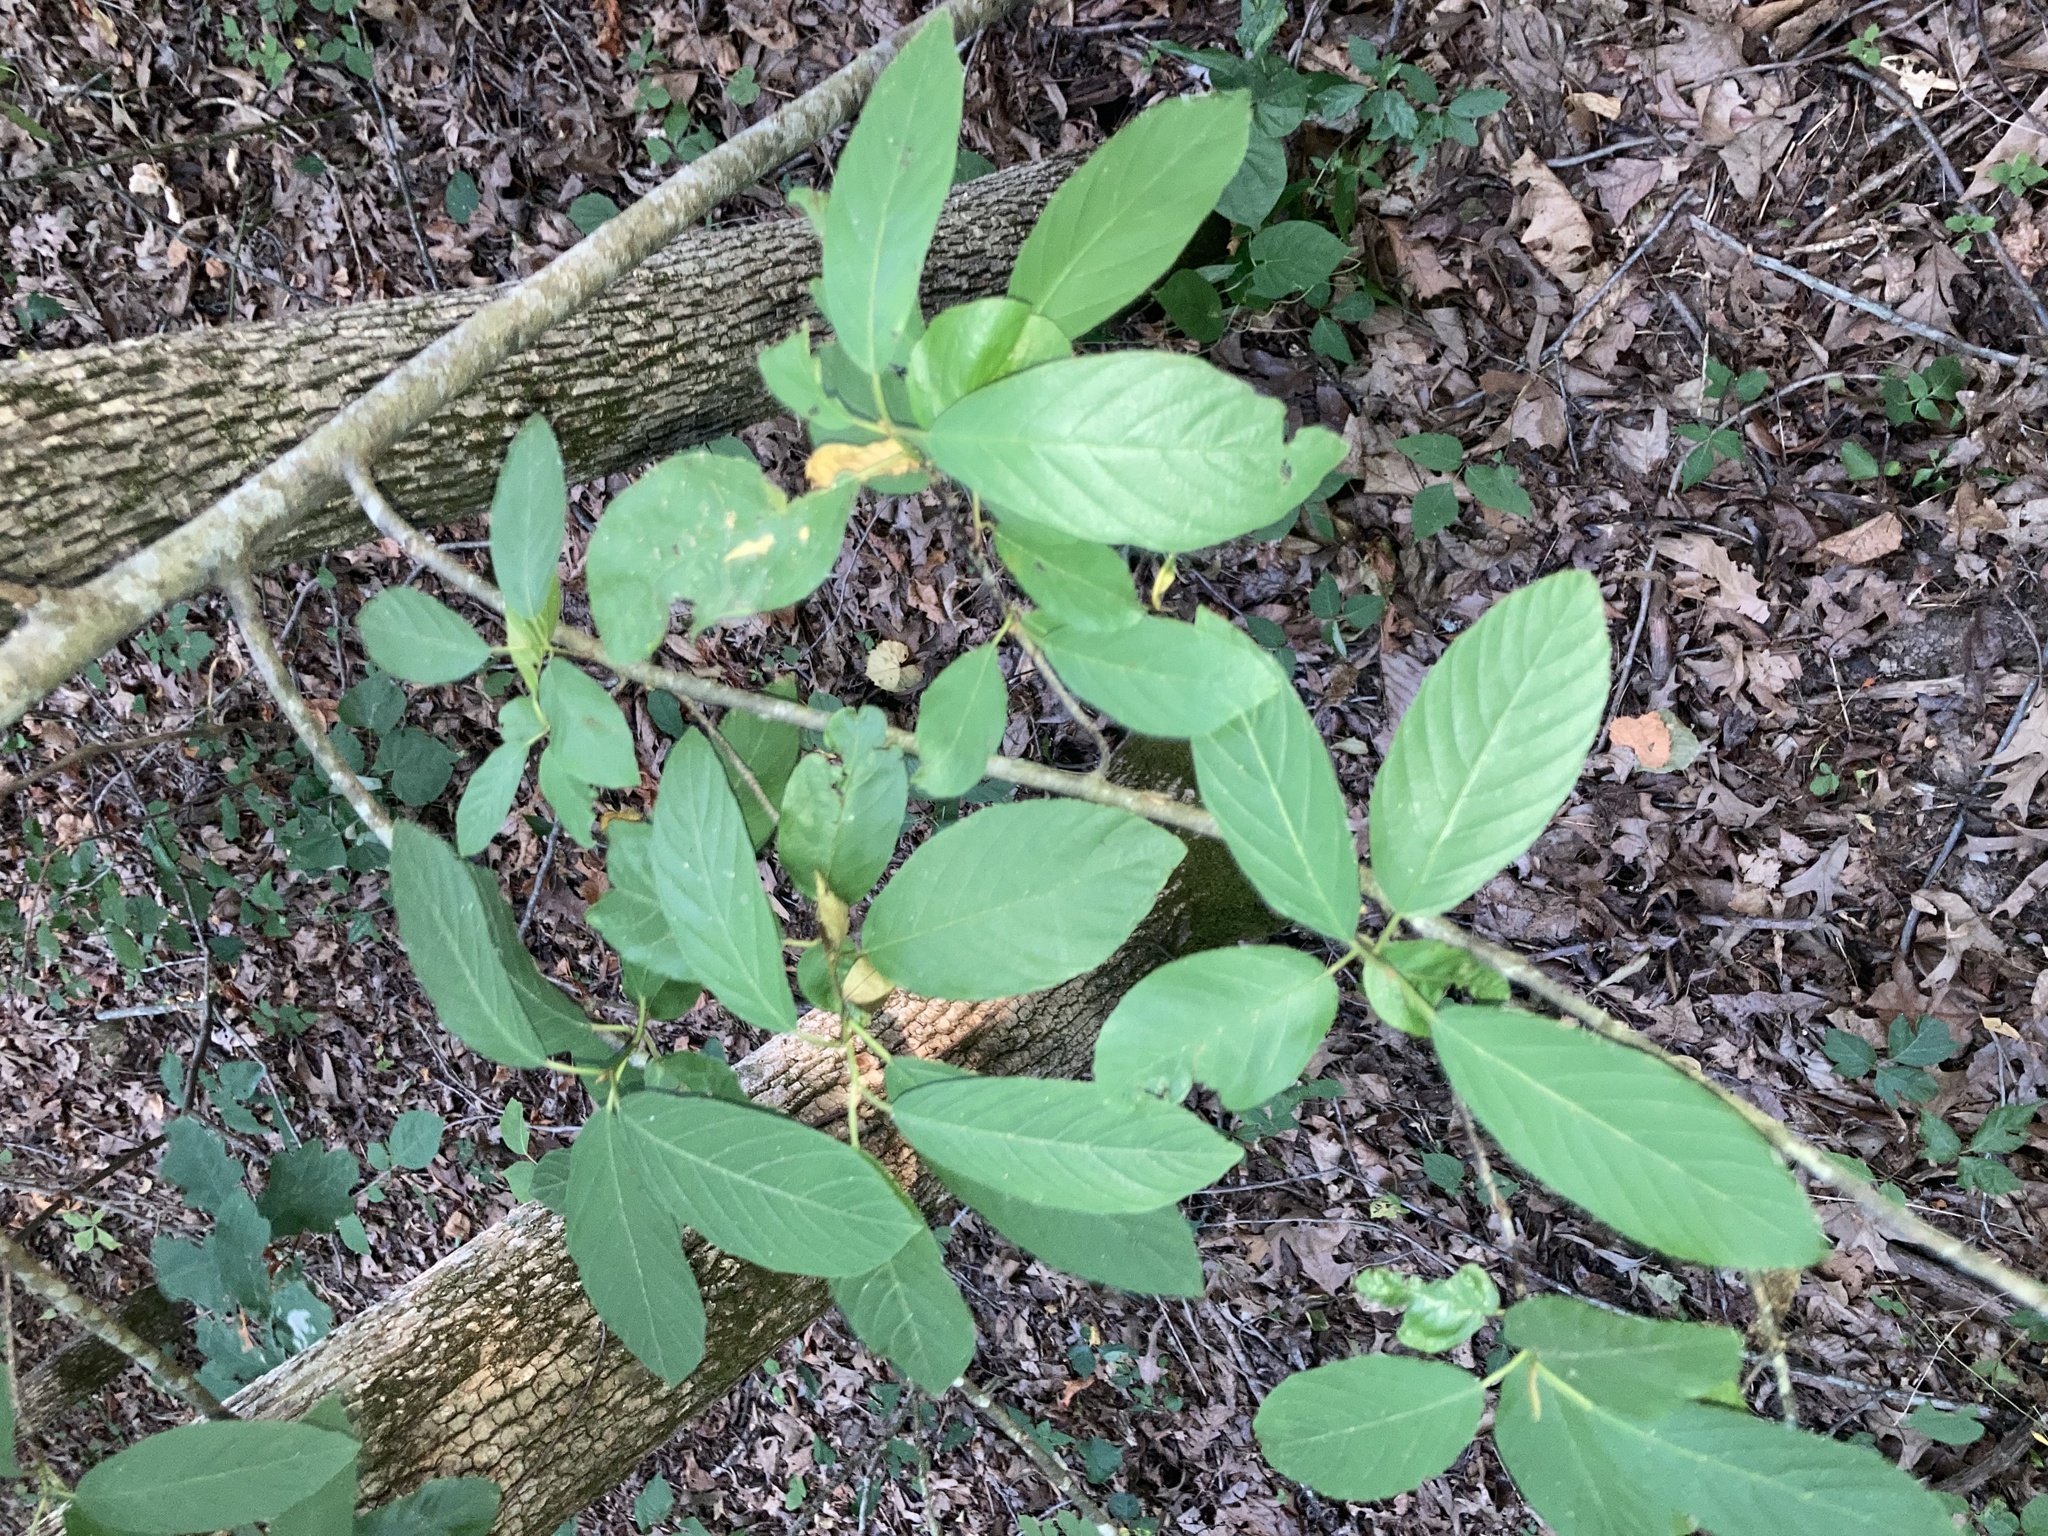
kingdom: Plantae
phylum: Tracheophyta
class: Magnoliopsida
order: Rosales
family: Rhamnaceae
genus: Frangula
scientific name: Frangula caroliniana
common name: Carolina buckthorn
